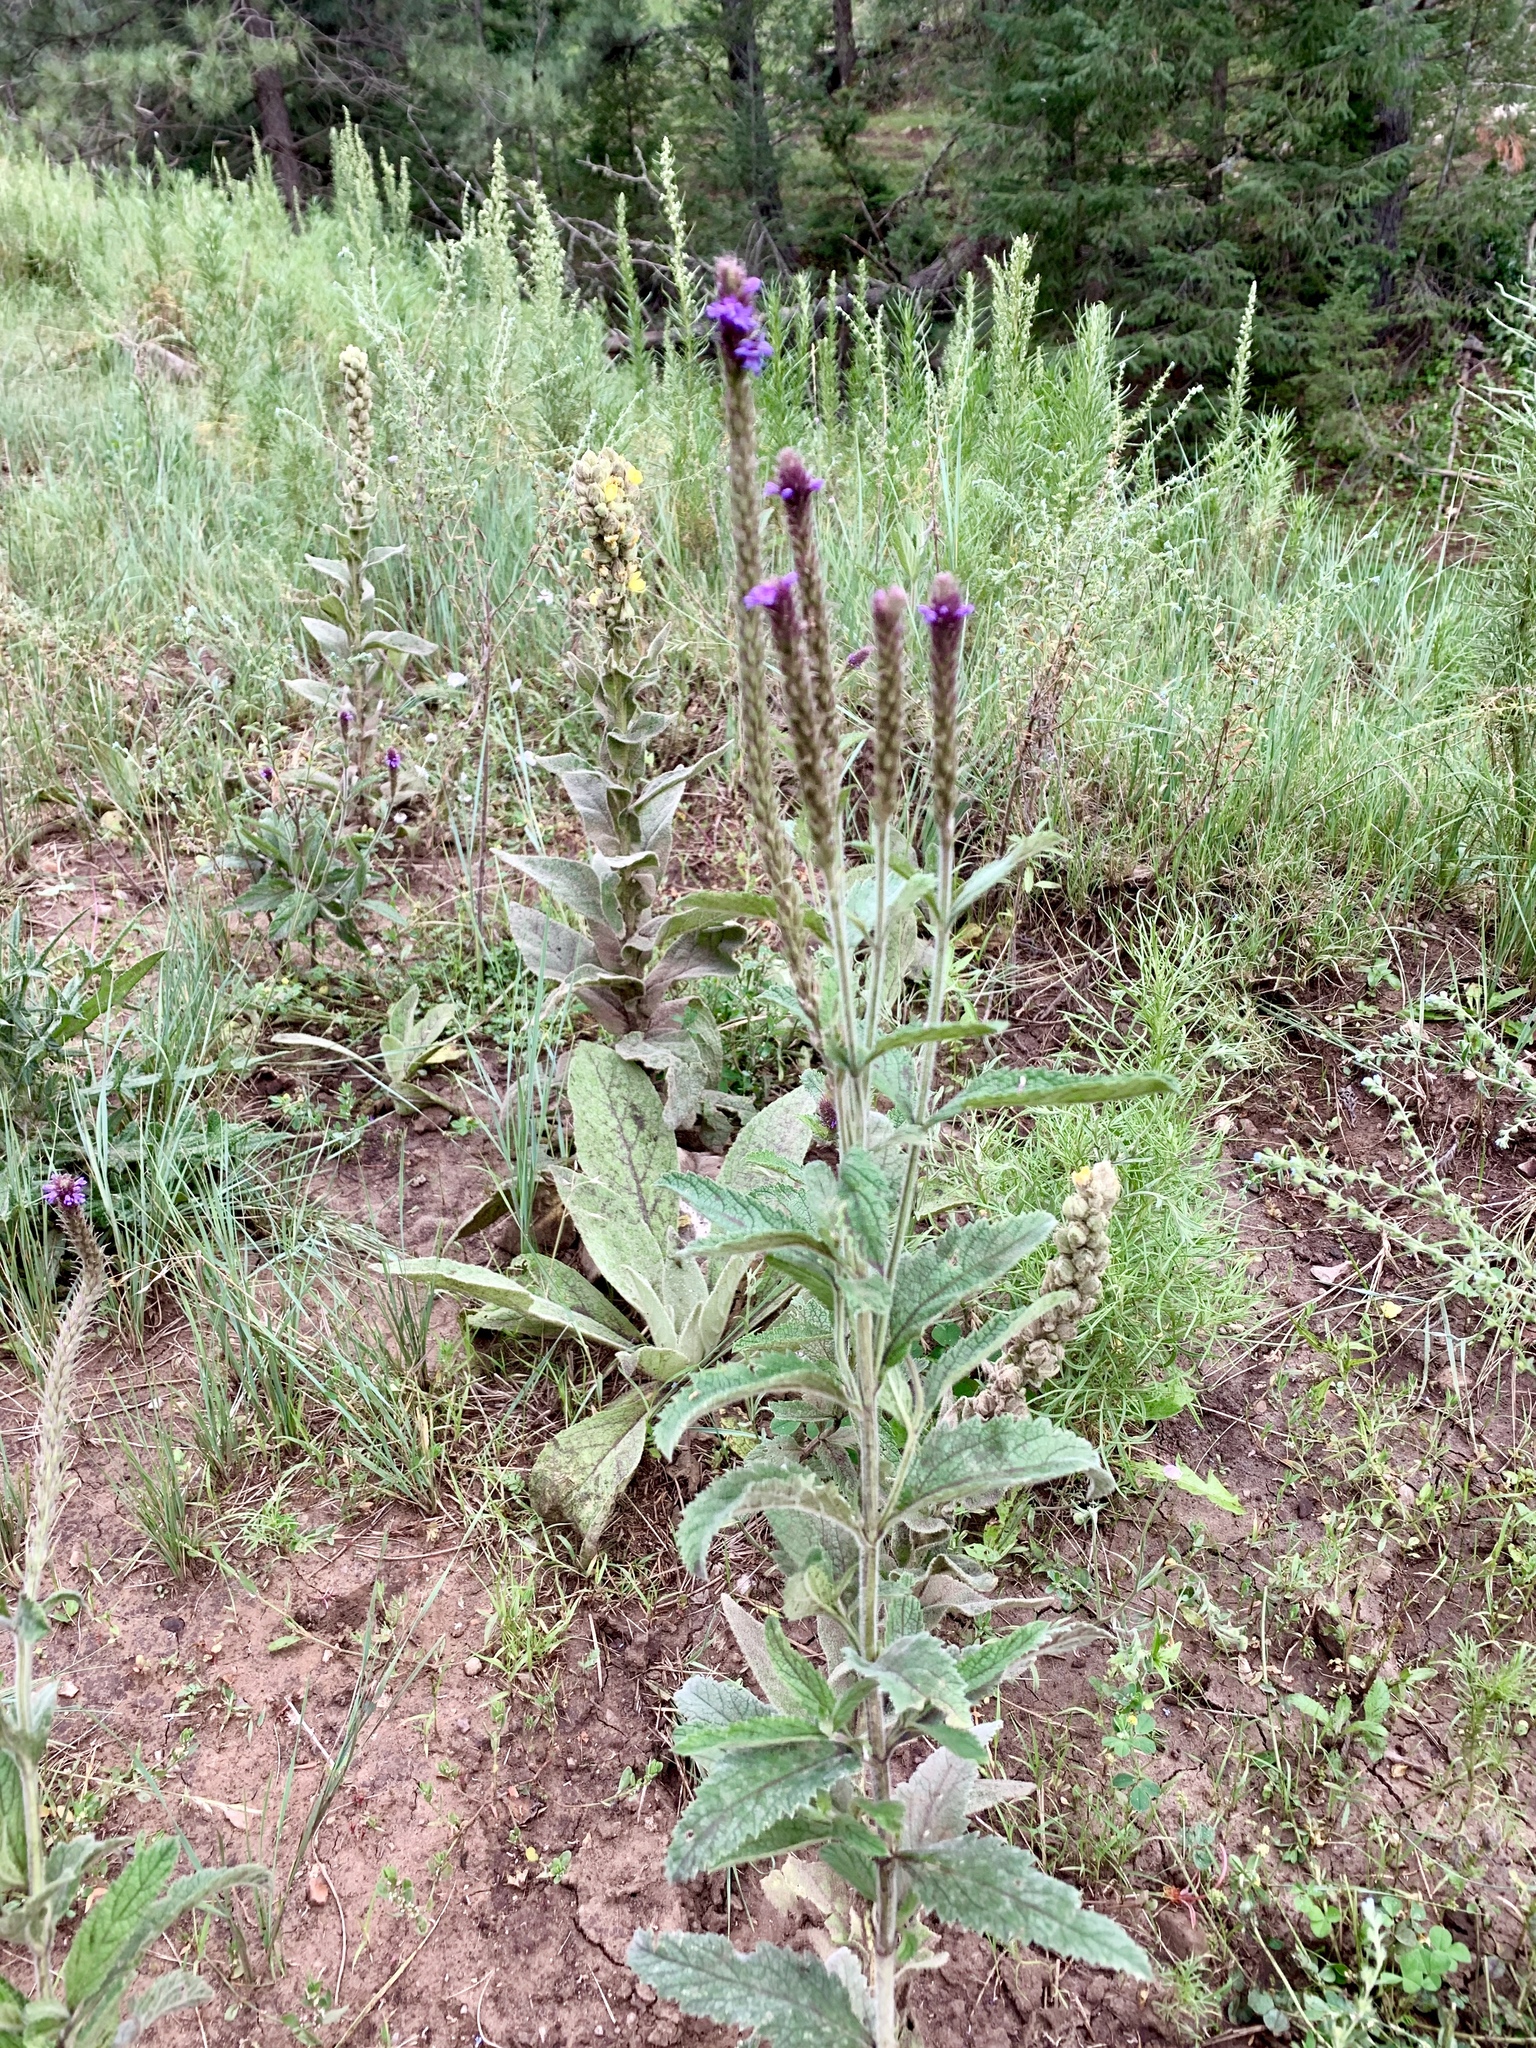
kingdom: Plantae
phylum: Tracheophyta
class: Magnoliopsida
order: Lamiales
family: Verbenaceae
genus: Verbena
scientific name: Verbena macdougalii
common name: New mexico vervain
